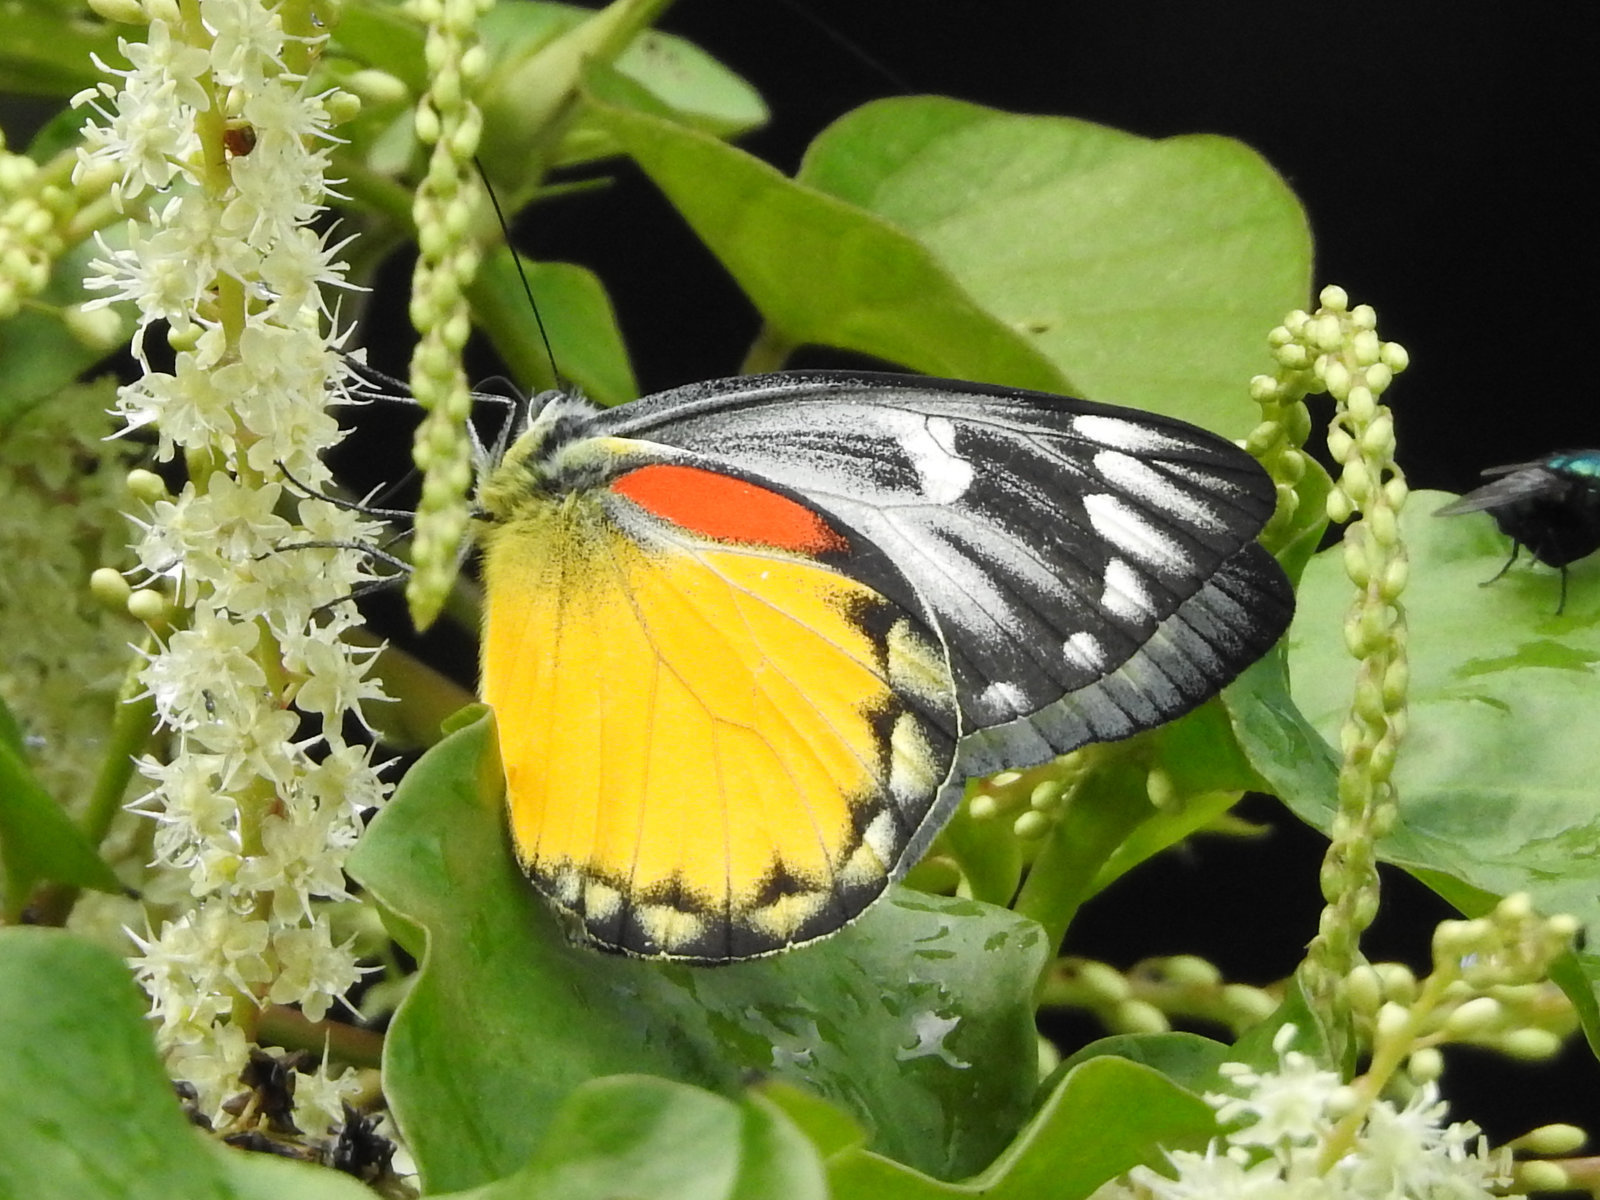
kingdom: Animalia
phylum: Arthropoda
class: Insecta
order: Lepidoptera
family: Pieridae
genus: Delias
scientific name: Delias descombesi
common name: Red-spot jezebel
